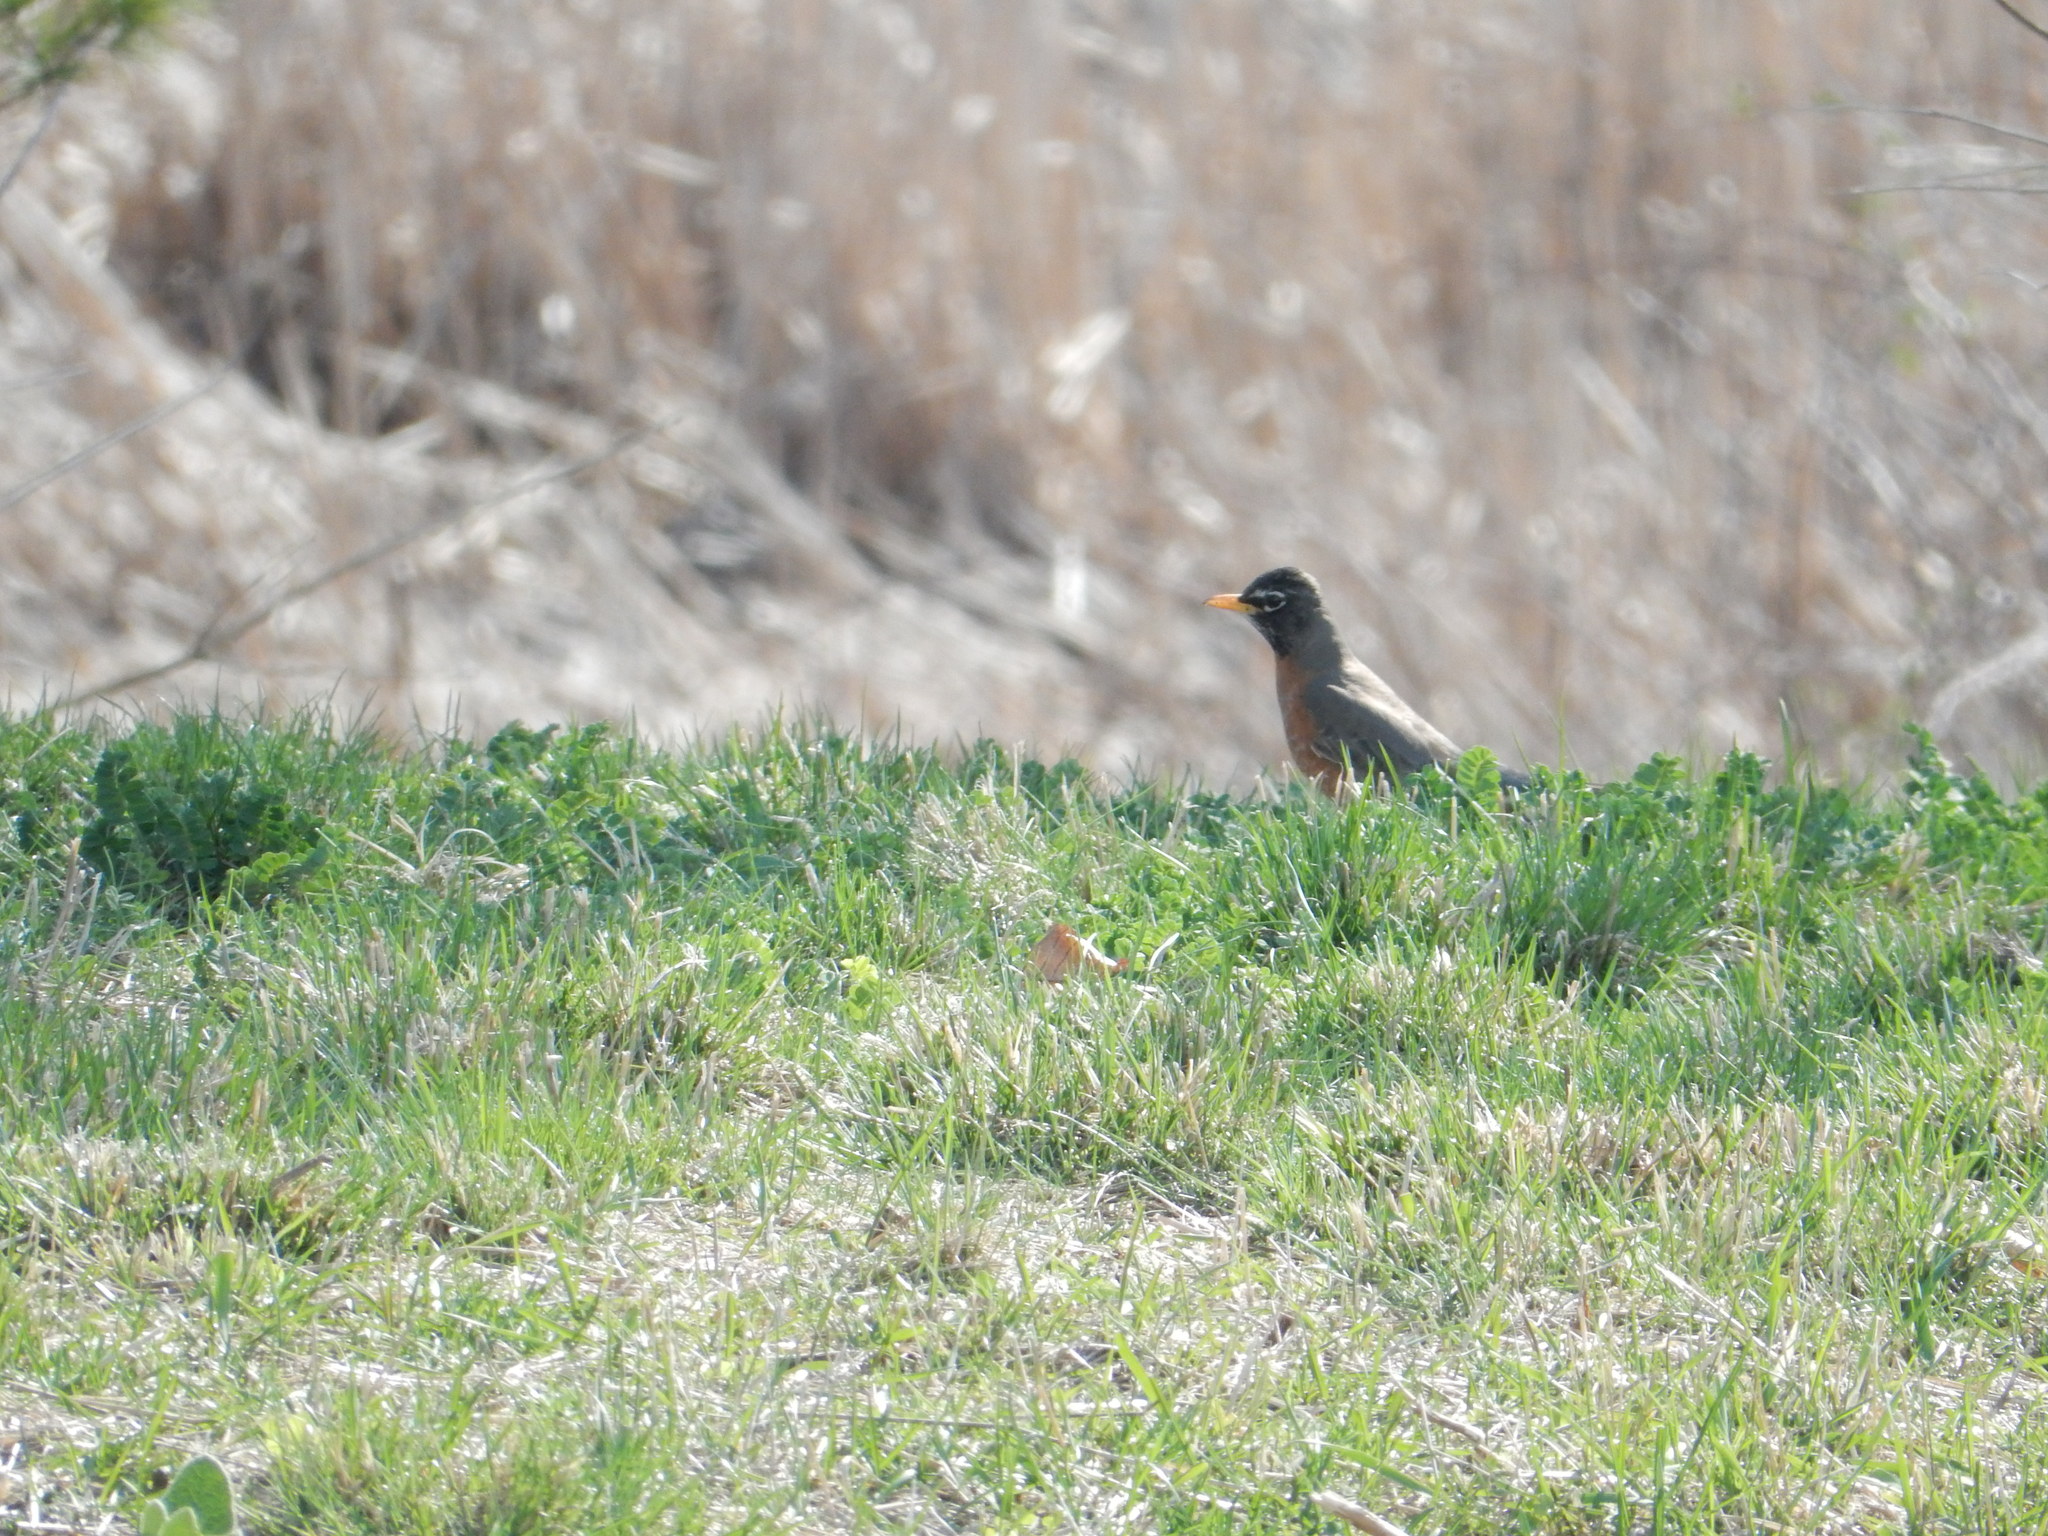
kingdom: Animalia
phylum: Chordata
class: Aves
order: Passeriformes
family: Turdidae
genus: Turdus
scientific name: Turdus migratorius
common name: American robin
